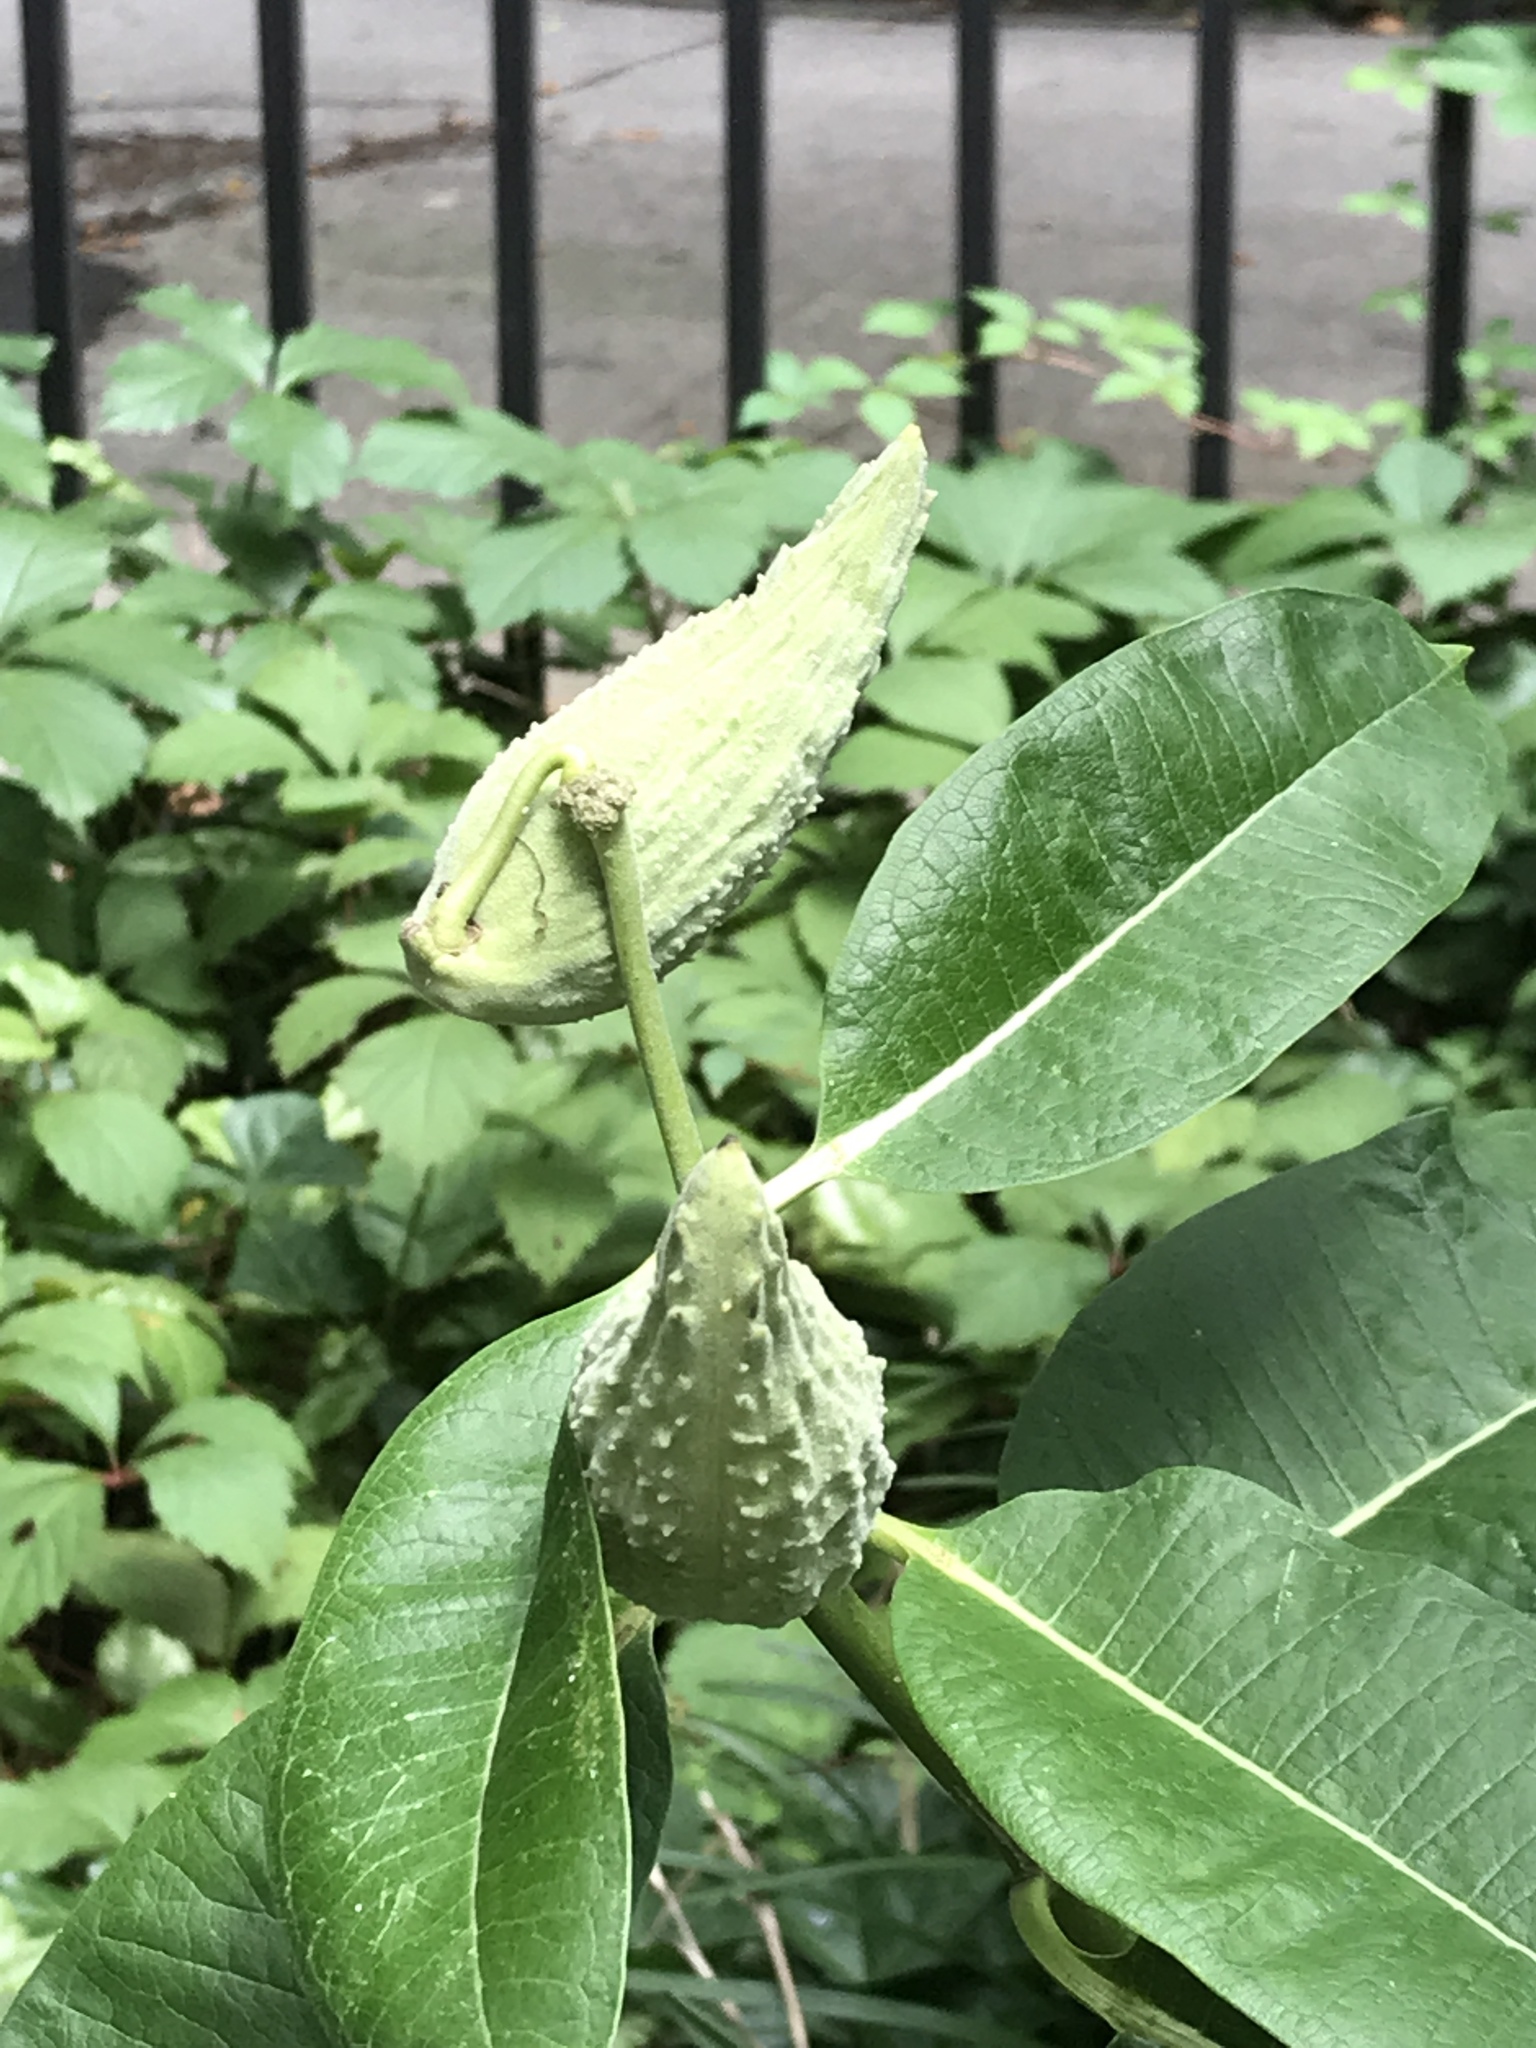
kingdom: Plantae
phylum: Tracheophyta
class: Magnoliopsida
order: Gentianales
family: Apocynaceae
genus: Asclepias
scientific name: Asclepias syriaca
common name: Common milkweed
